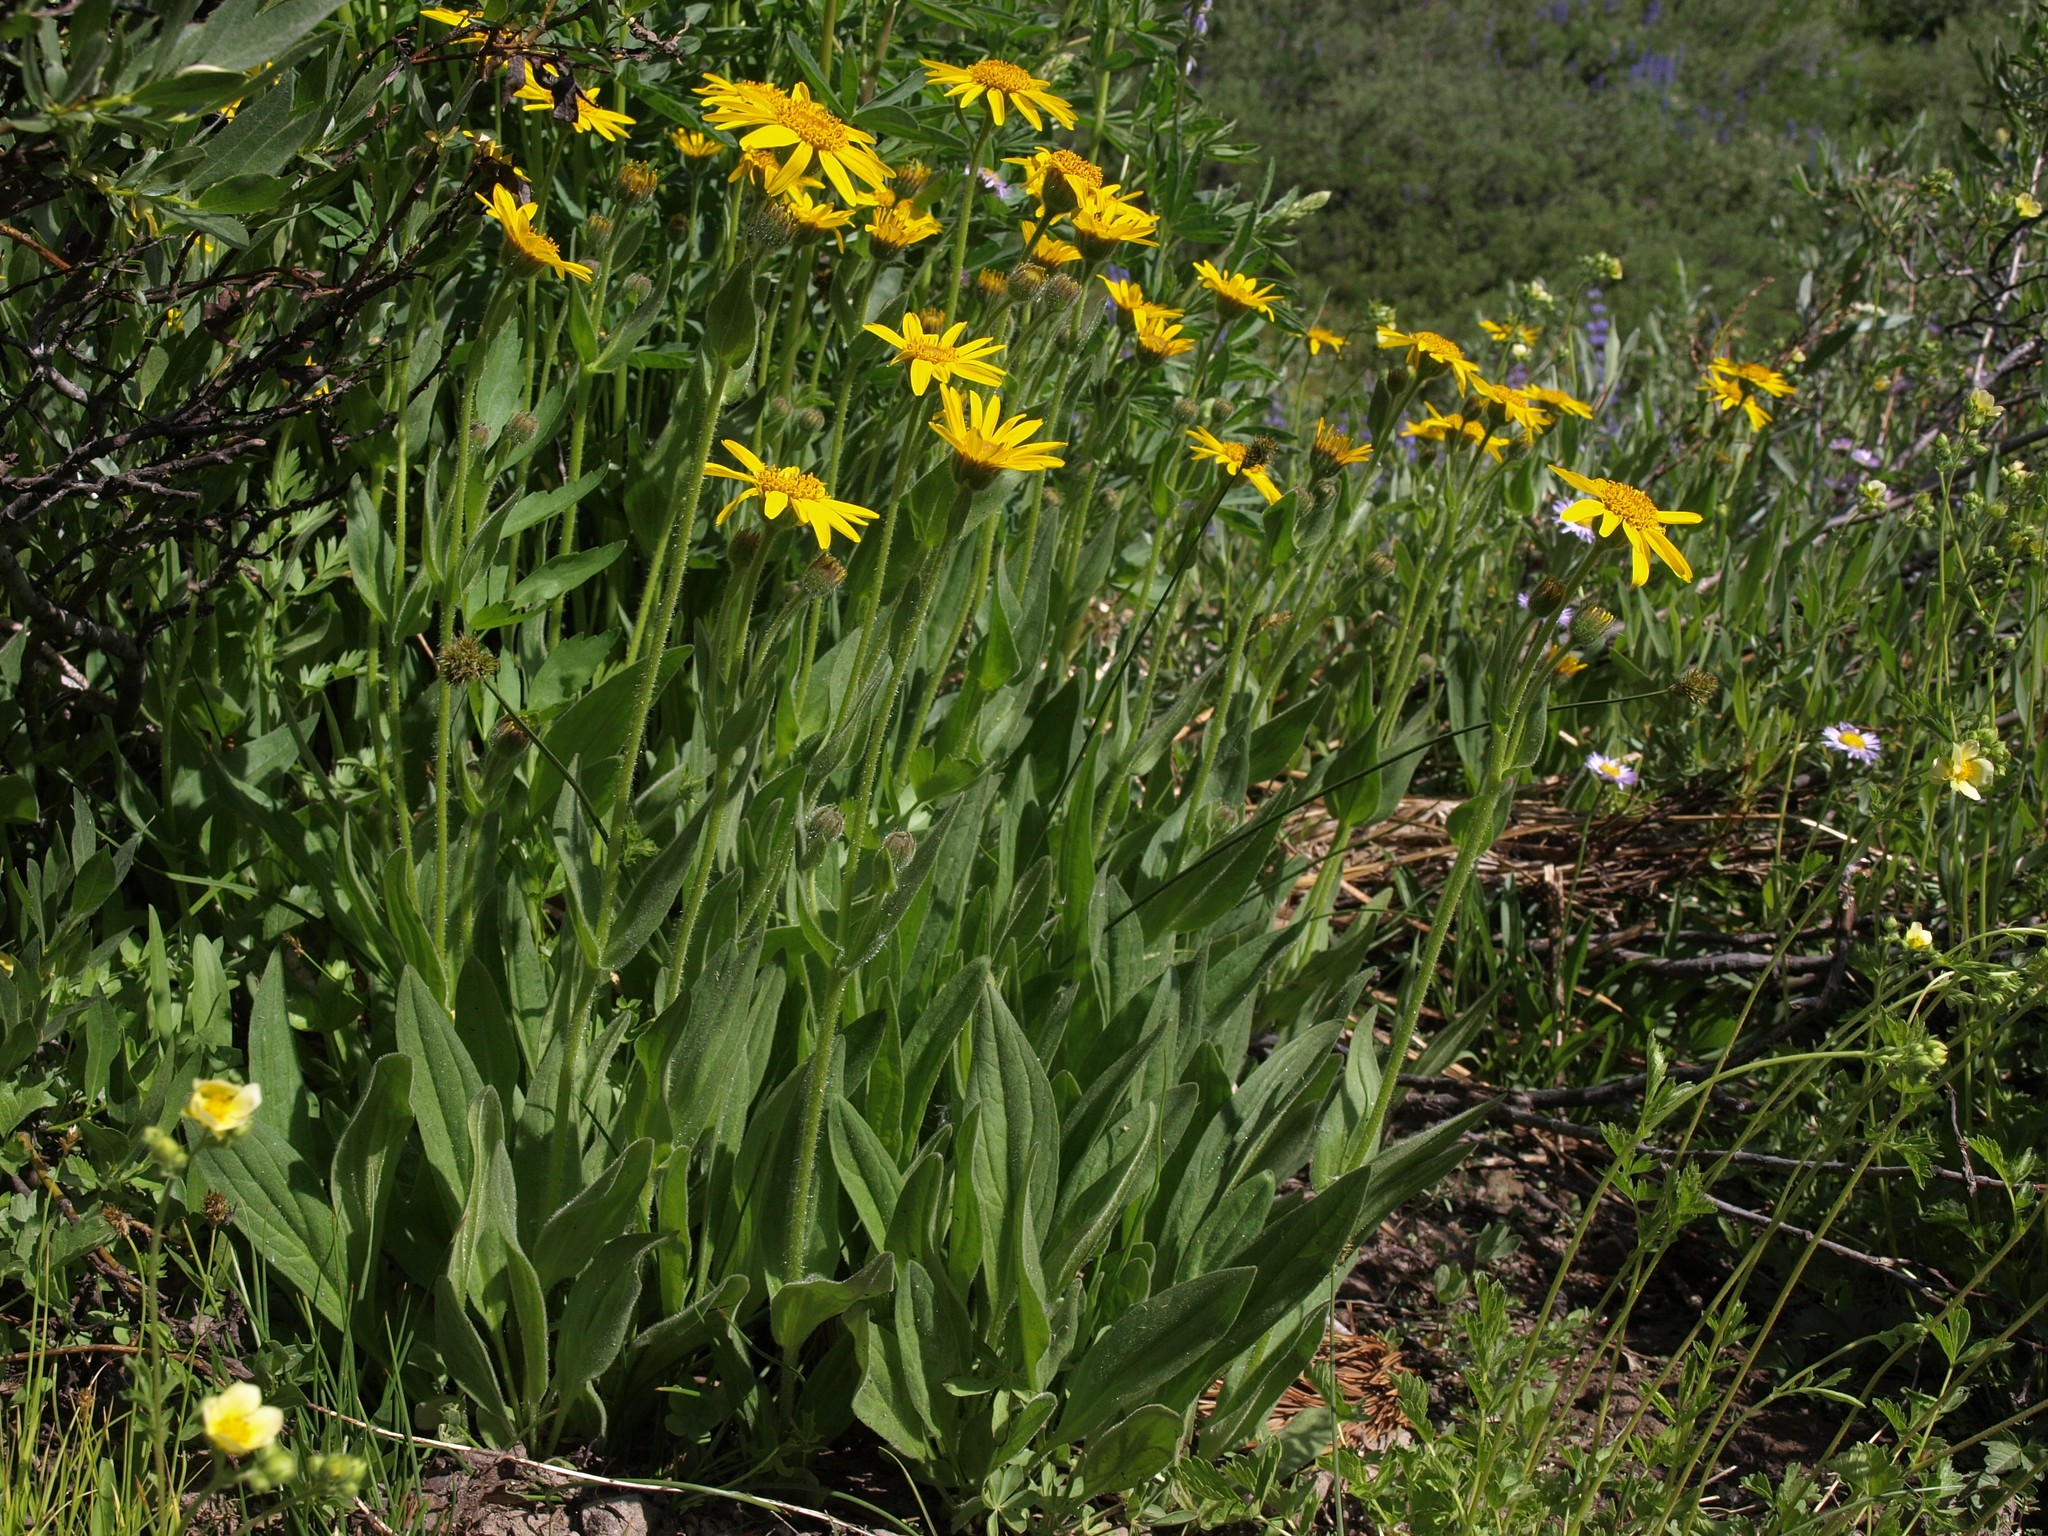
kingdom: Plantae
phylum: Tracheophyta
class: Magnoliopsida
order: Asterales
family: Asteraceae
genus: Arnica
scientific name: Arnica mollis
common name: Hairy arnica
